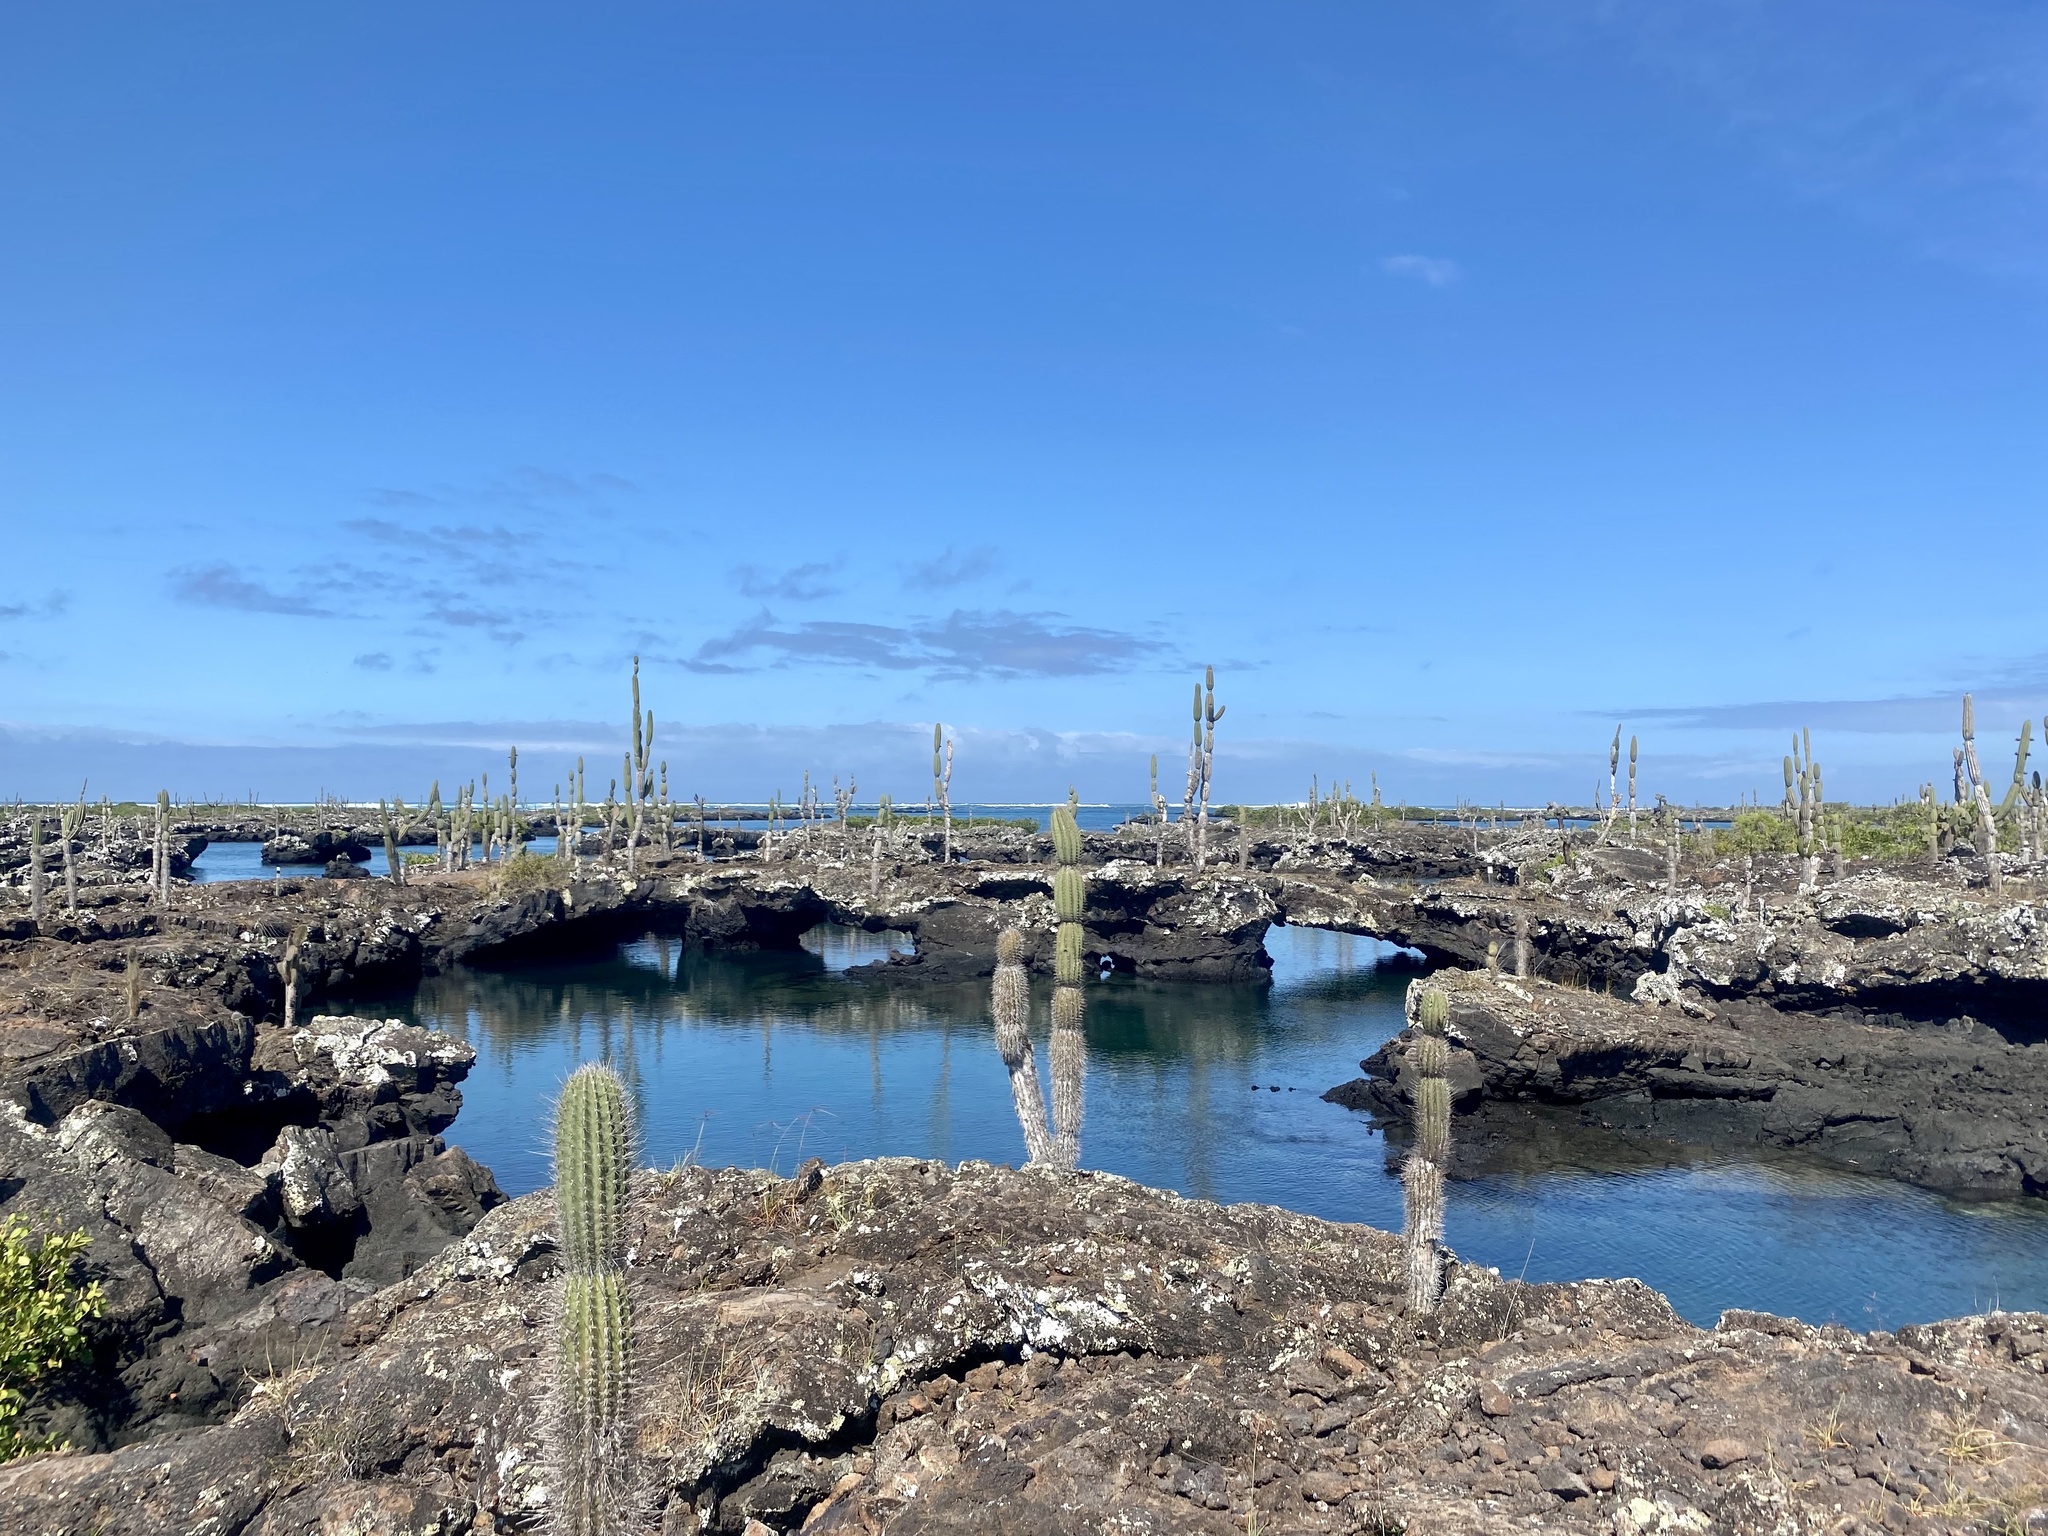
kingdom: Plantae
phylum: Tracheophyta
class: Magnoliopsida
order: Caryophyllales
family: Cactaceae
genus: Jasminocereus
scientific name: Jasminocereus thouarsii
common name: Candelabra cactus
